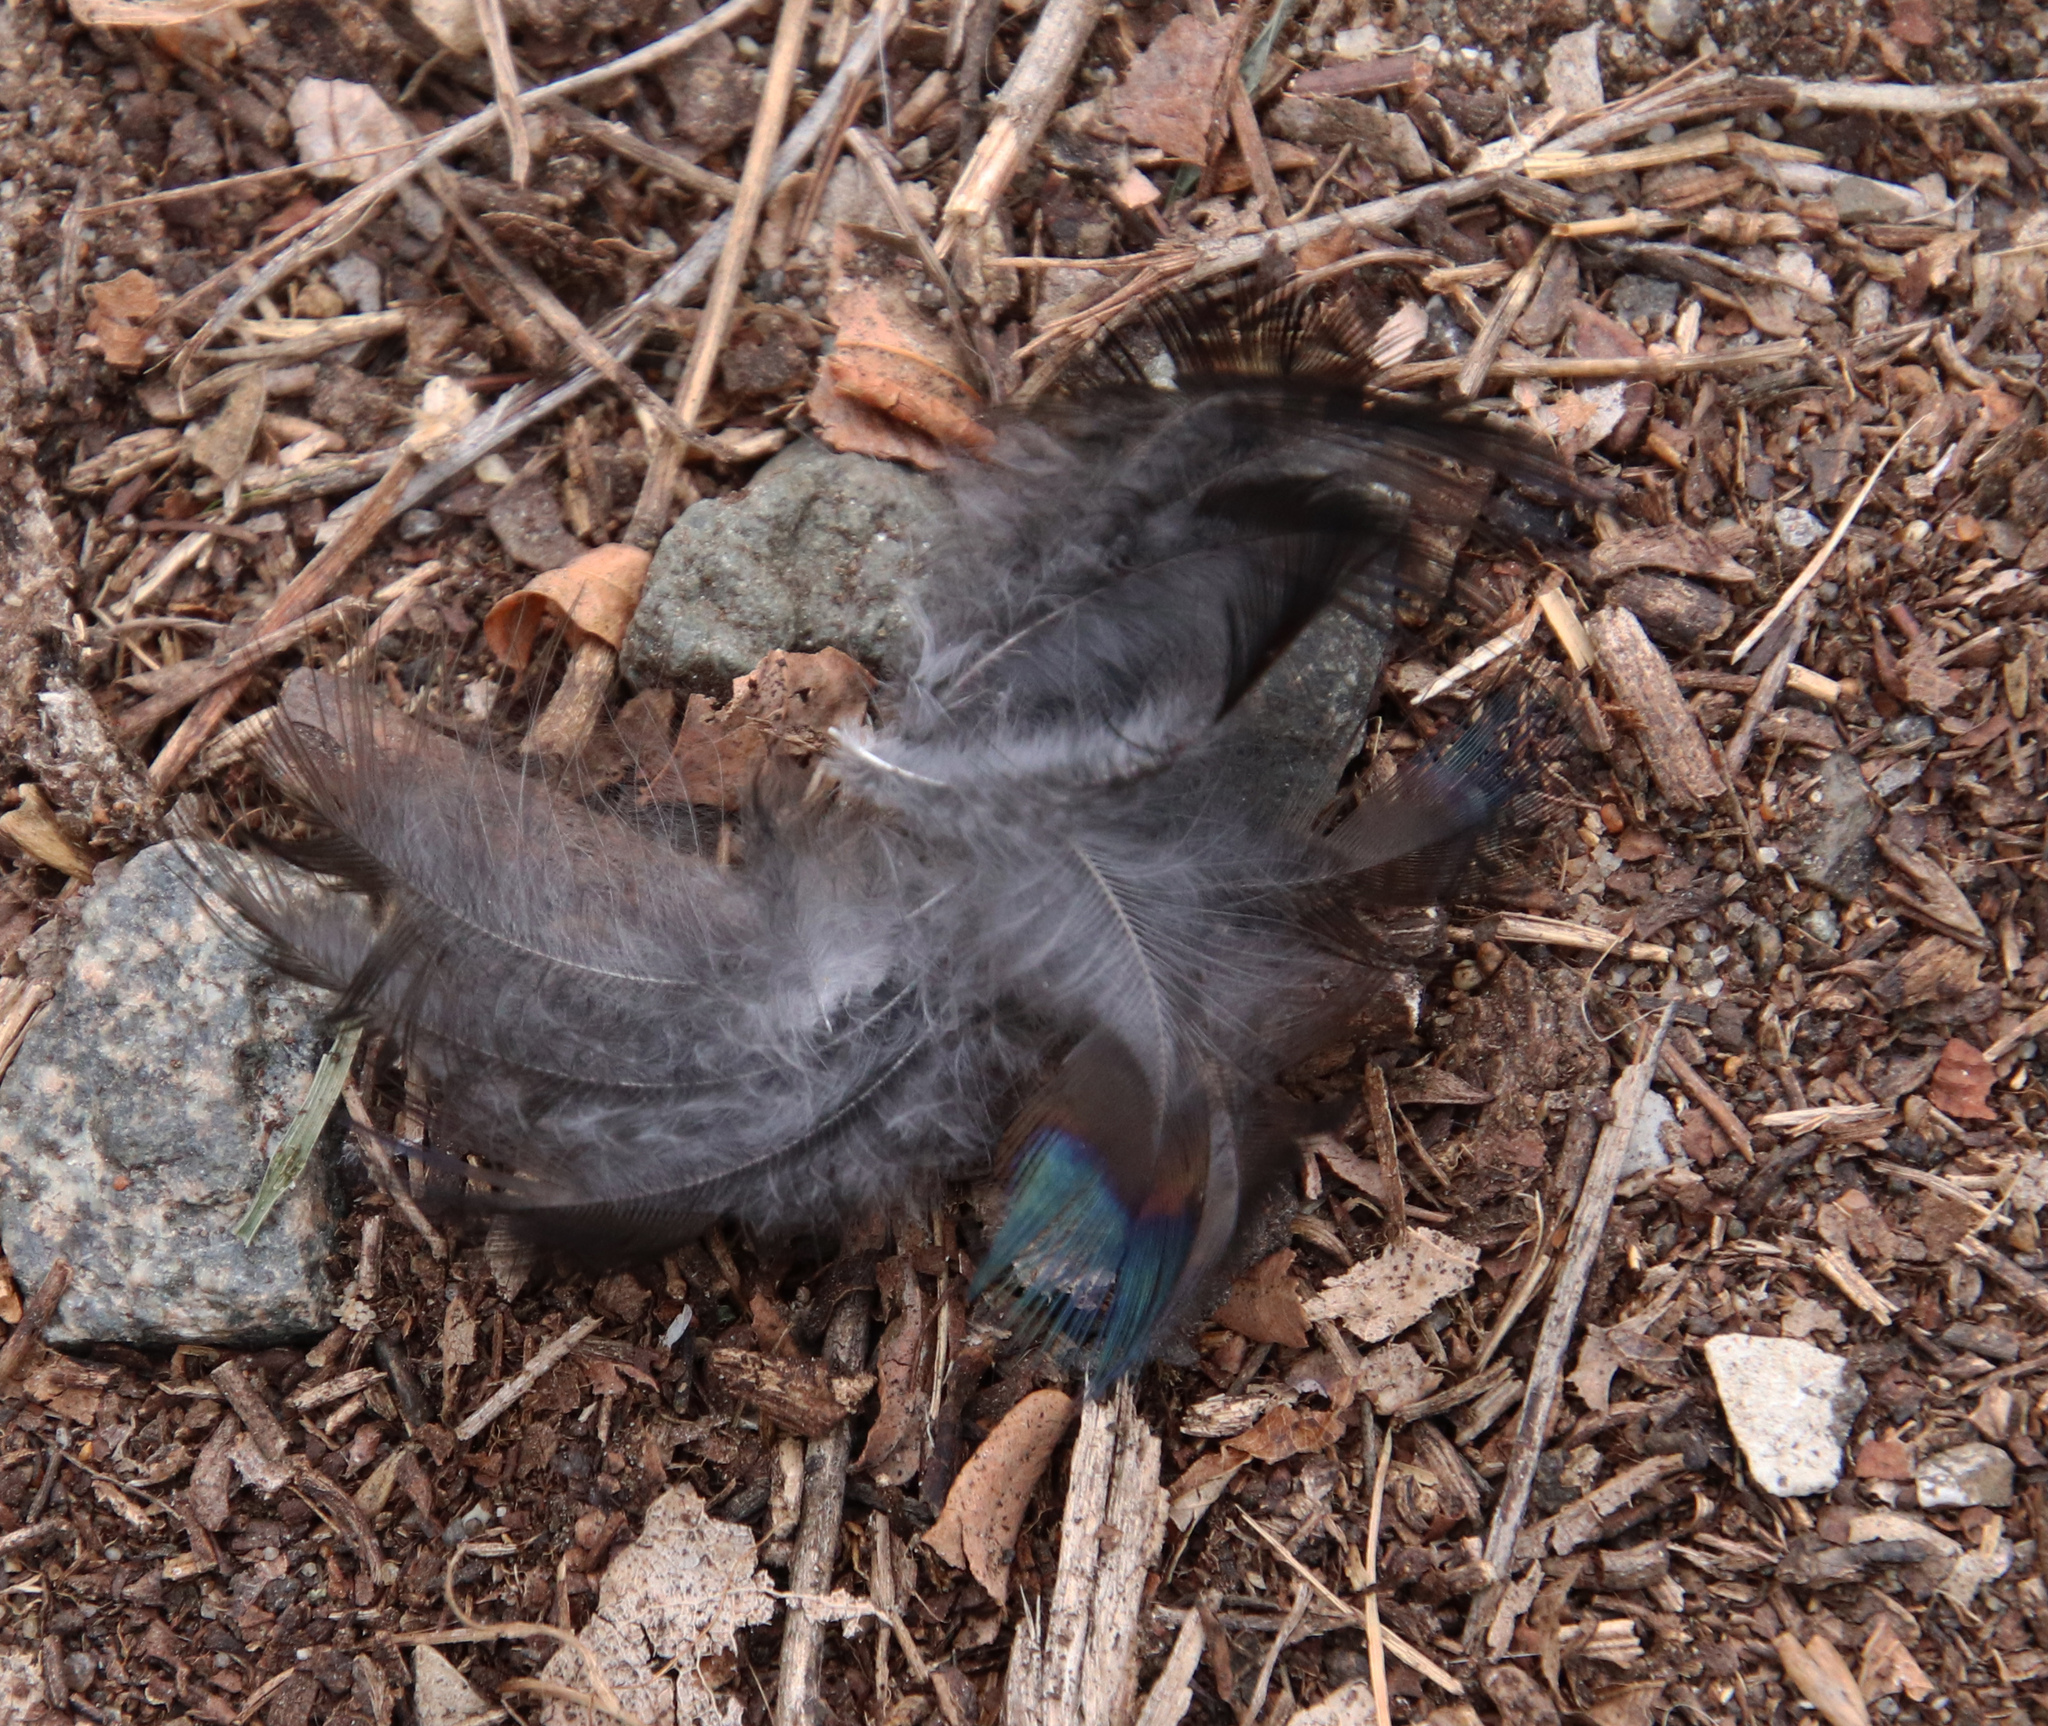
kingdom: Animalia
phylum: Chordata
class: Aves
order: Passeriformes
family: Icteridae
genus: Quiscalus
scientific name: Quiscalus quiscula
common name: Common grackle
